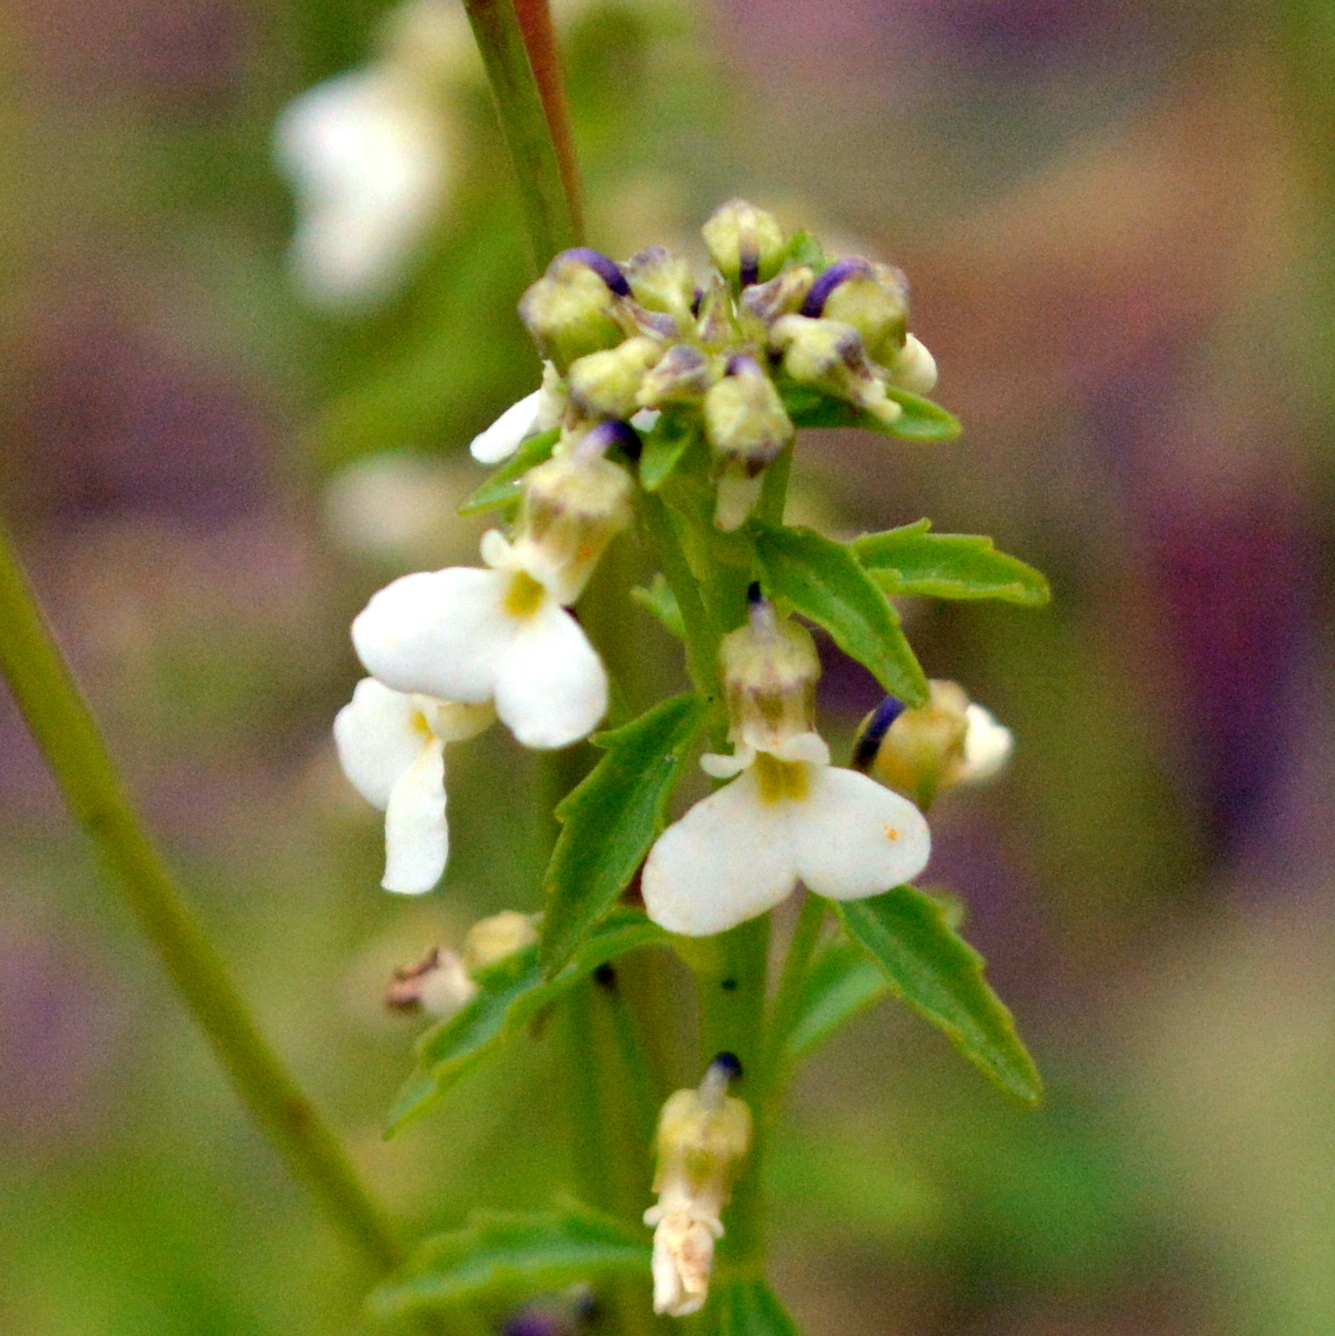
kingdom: Plantae
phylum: Tracheophyta
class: Magnoliopsida
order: Malpighiales
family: Violaceae
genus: Pombalia
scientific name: Pombalia parviflora
